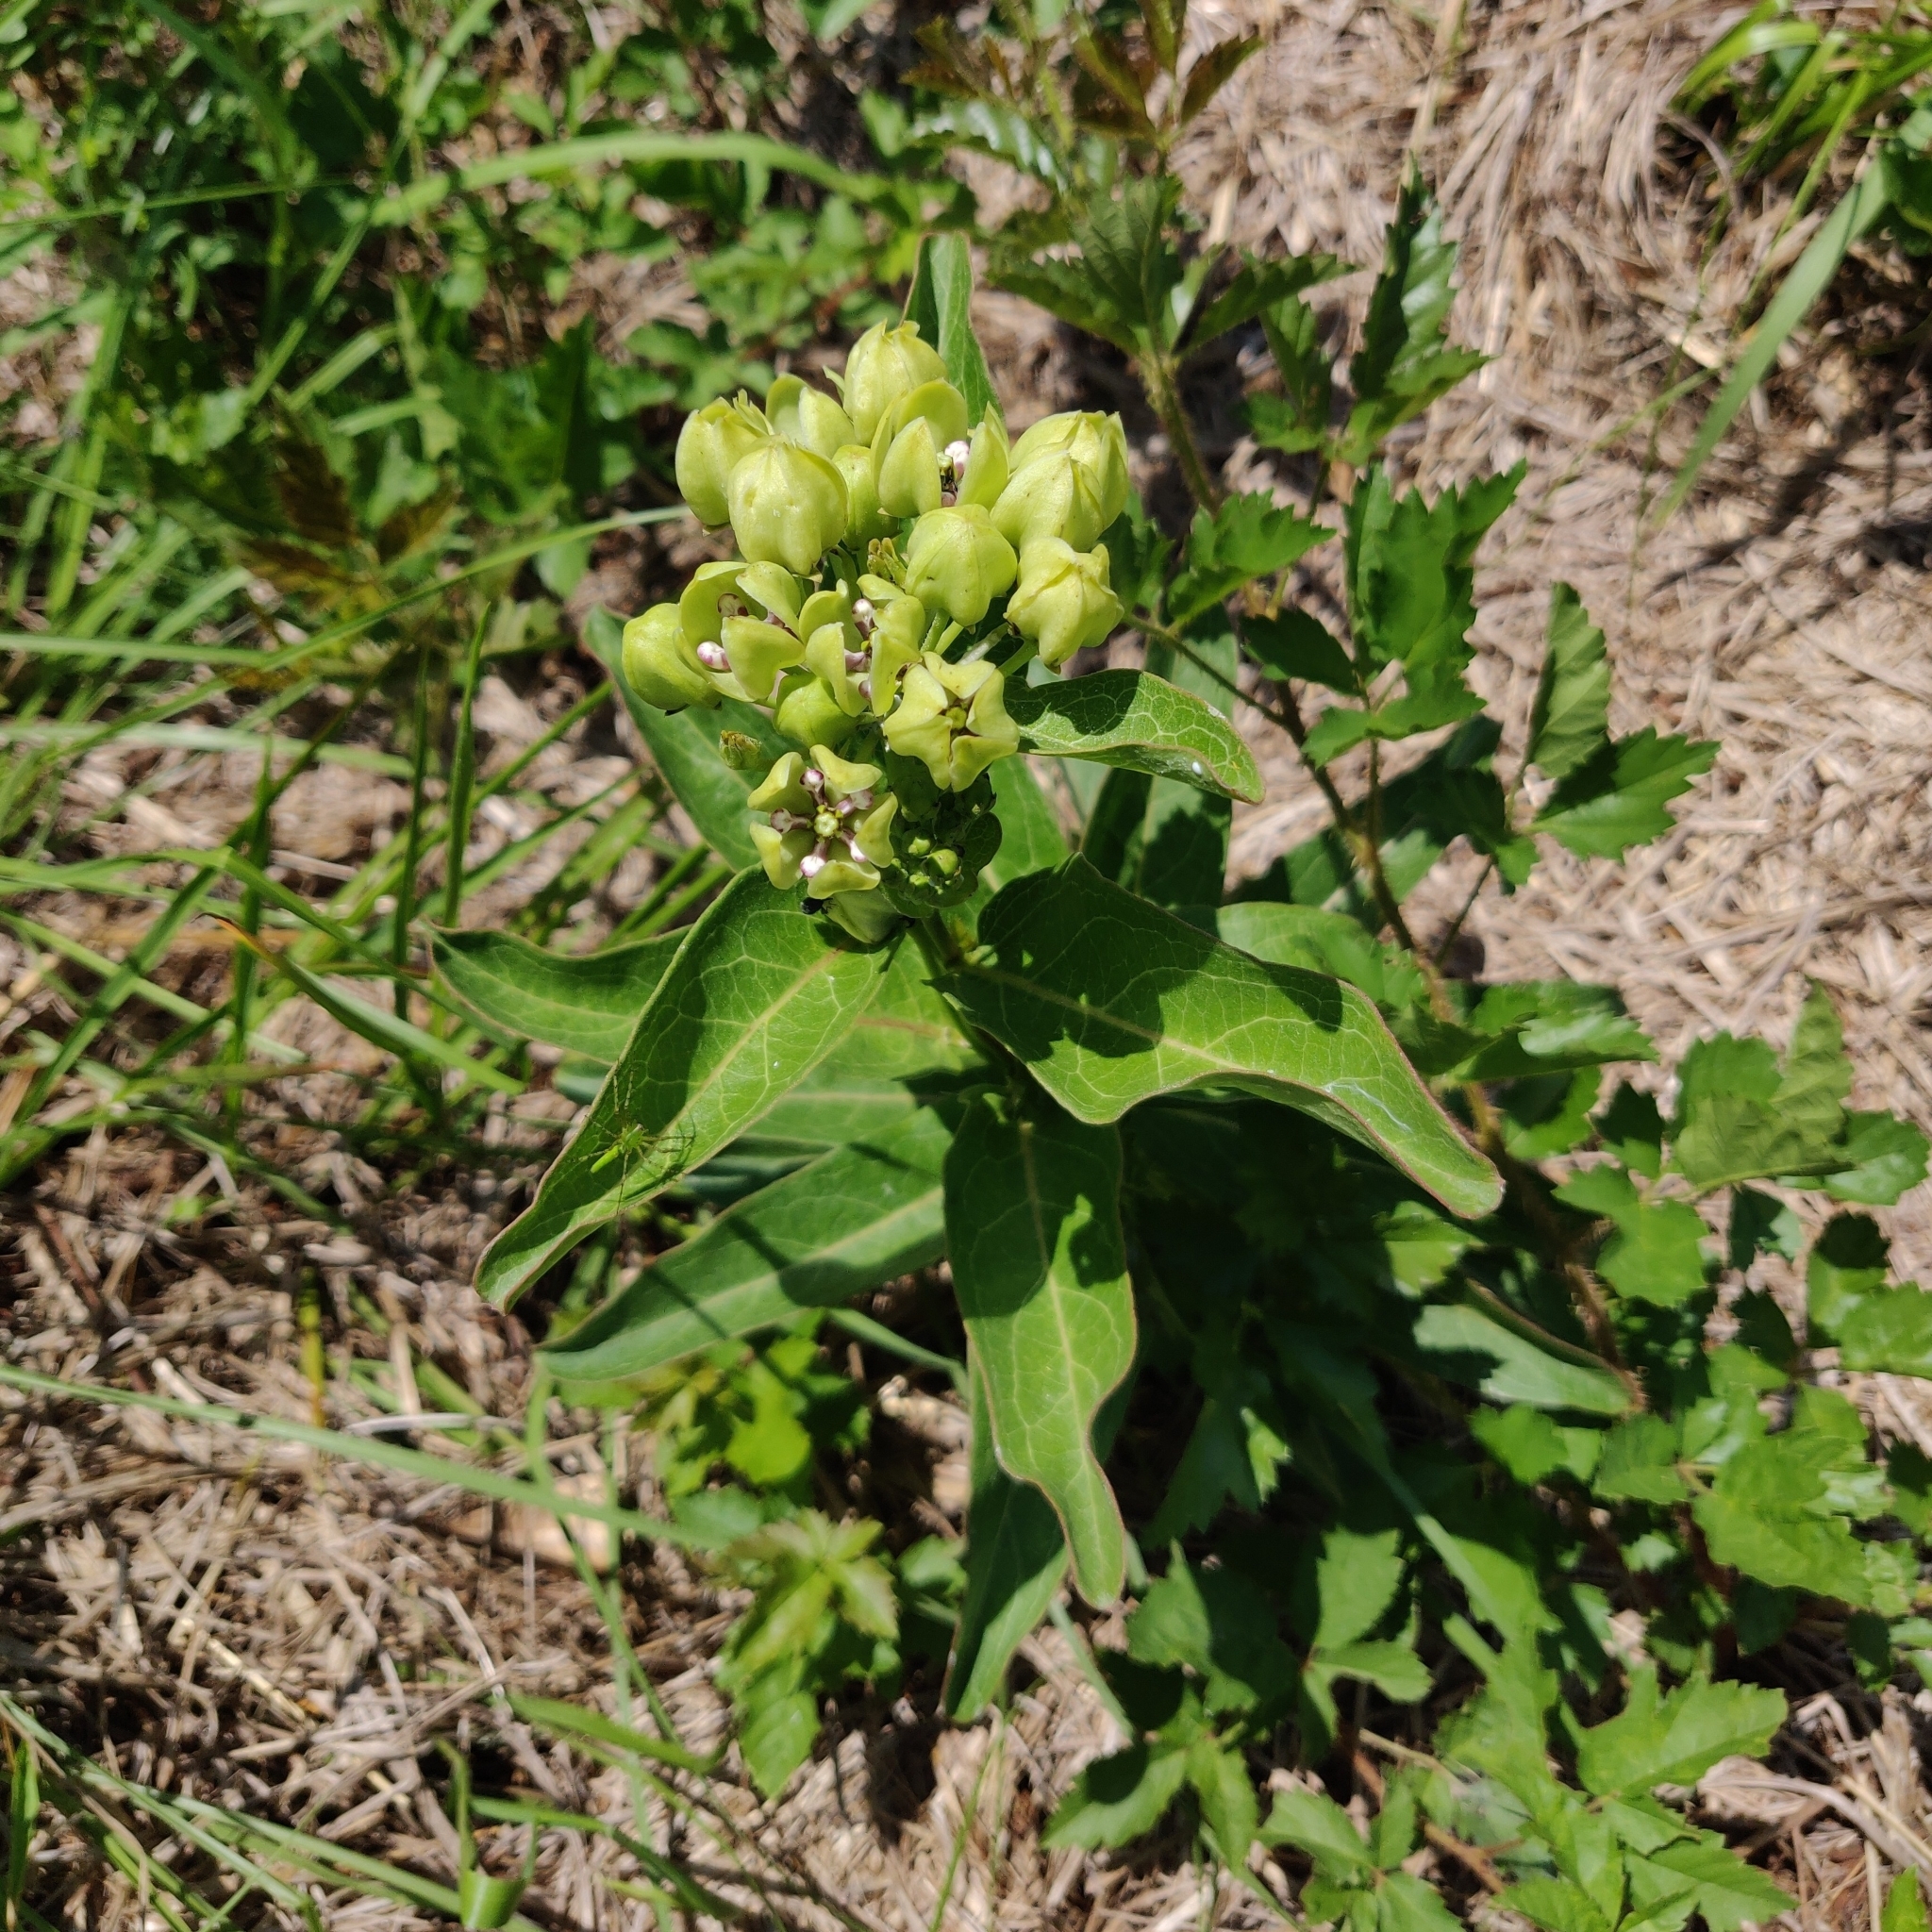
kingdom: Plantae
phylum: Tracheophyta
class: Magnoliopsida
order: Gentianales
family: Apocynaceae
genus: Asclepias
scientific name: Asclepias viridis
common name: Antelope-horns
